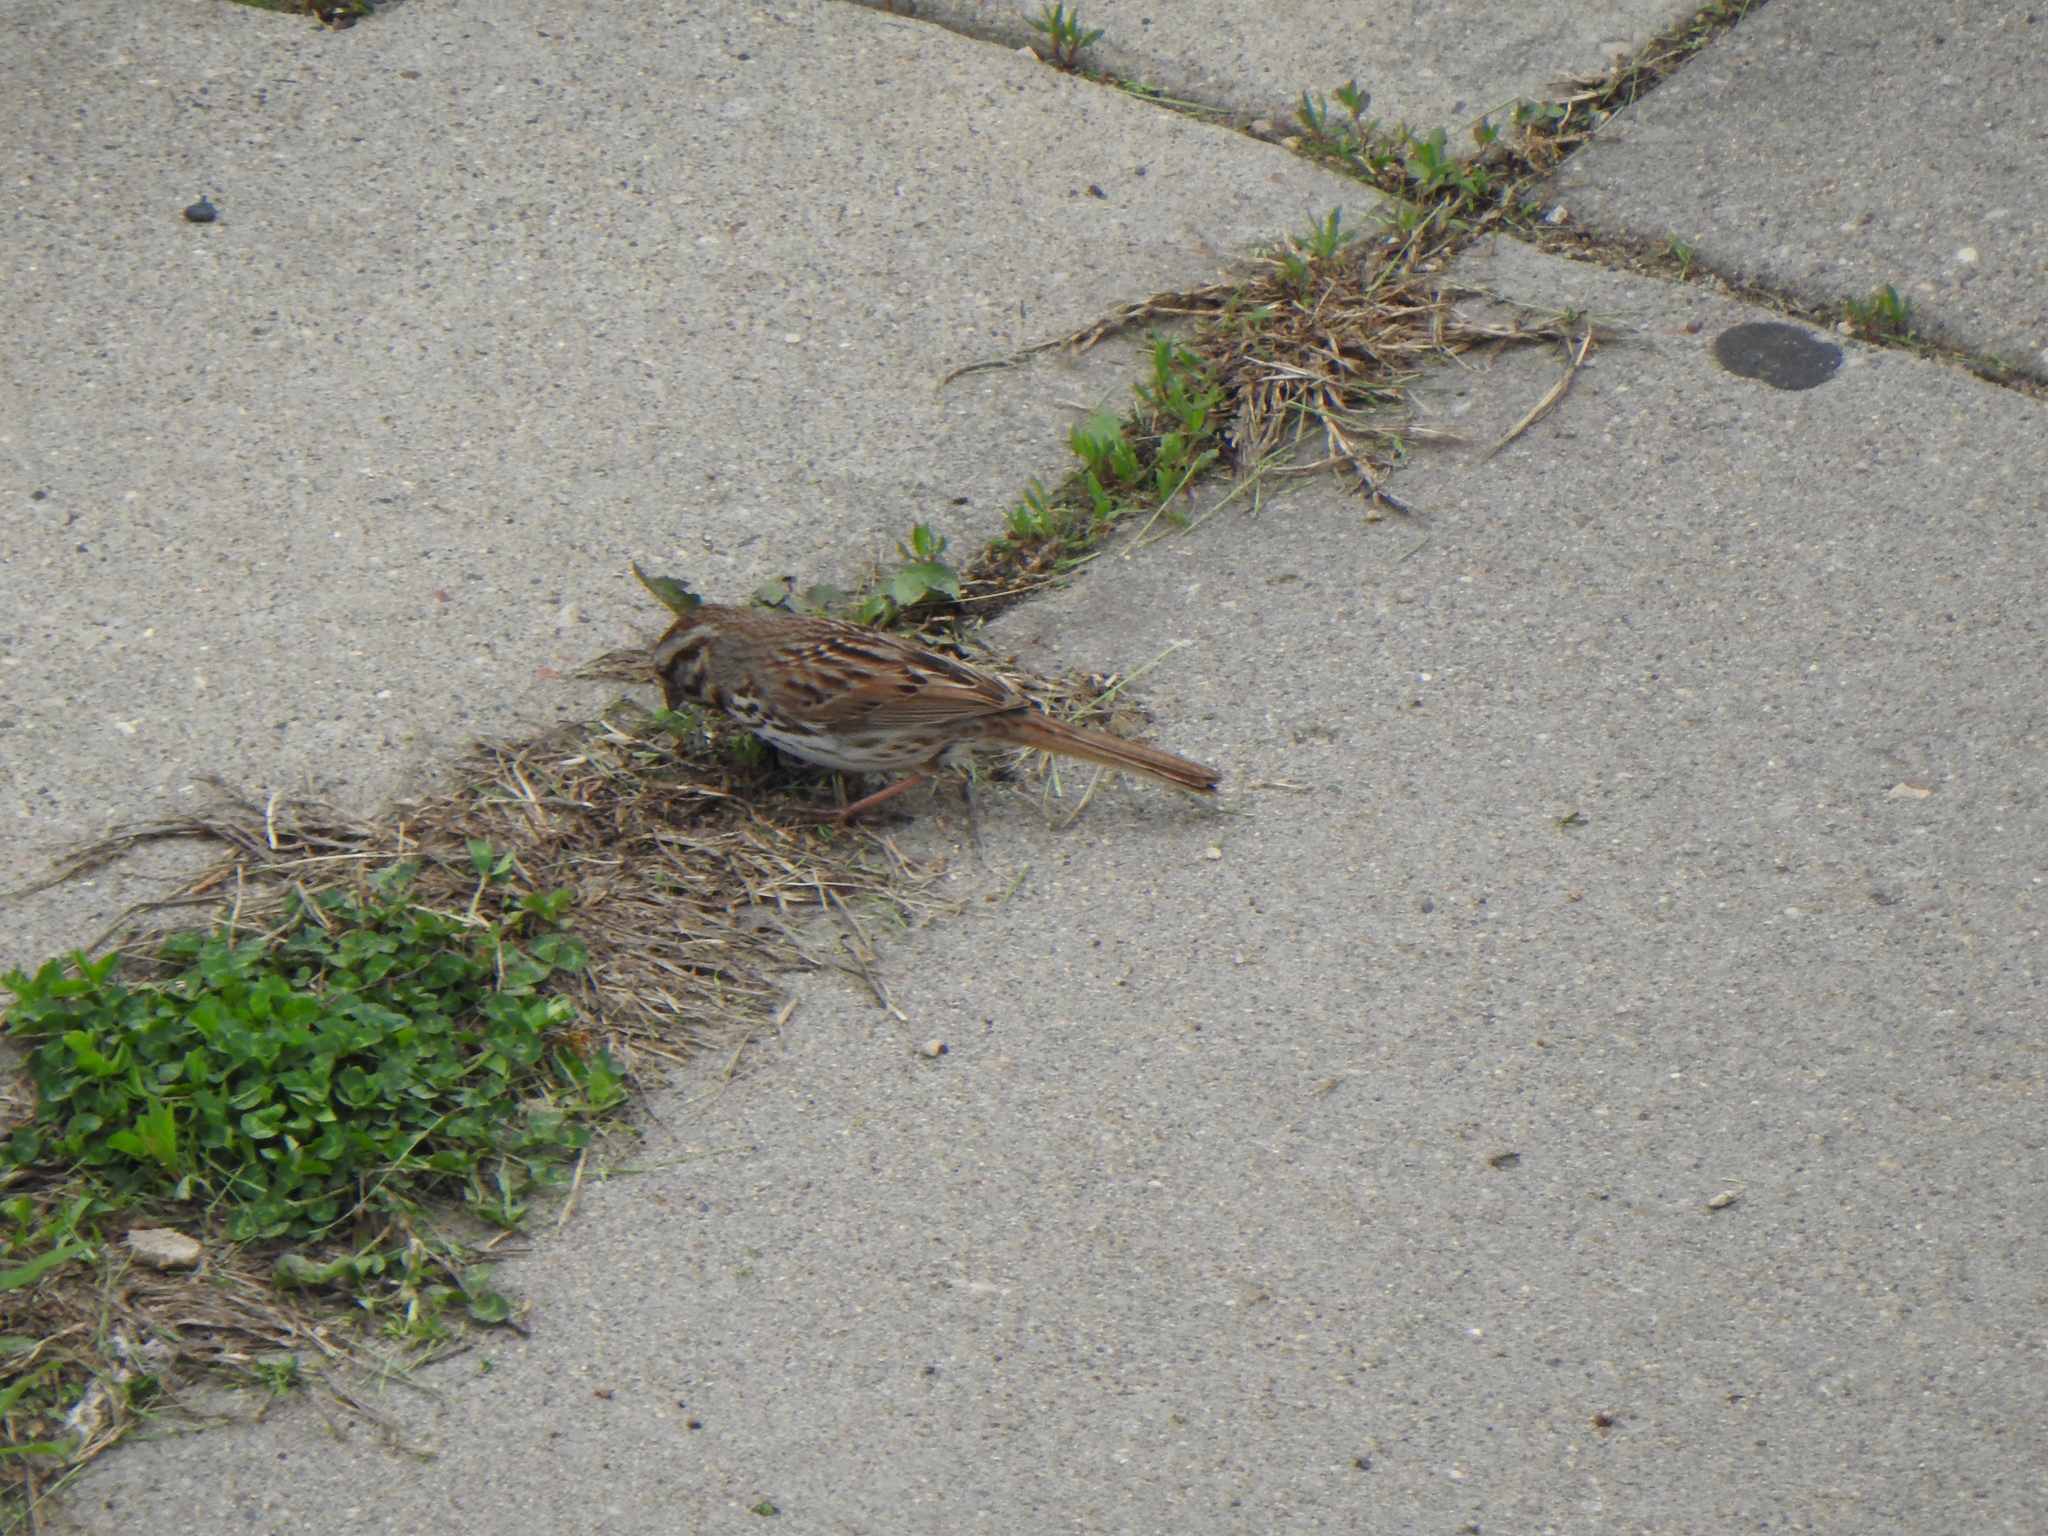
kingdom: Animalia
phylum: Chordata
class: Aves
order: Passeriformes
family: Passerellidae
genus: Melospiza
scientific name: Melospiza melodia
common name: Song sparrow
